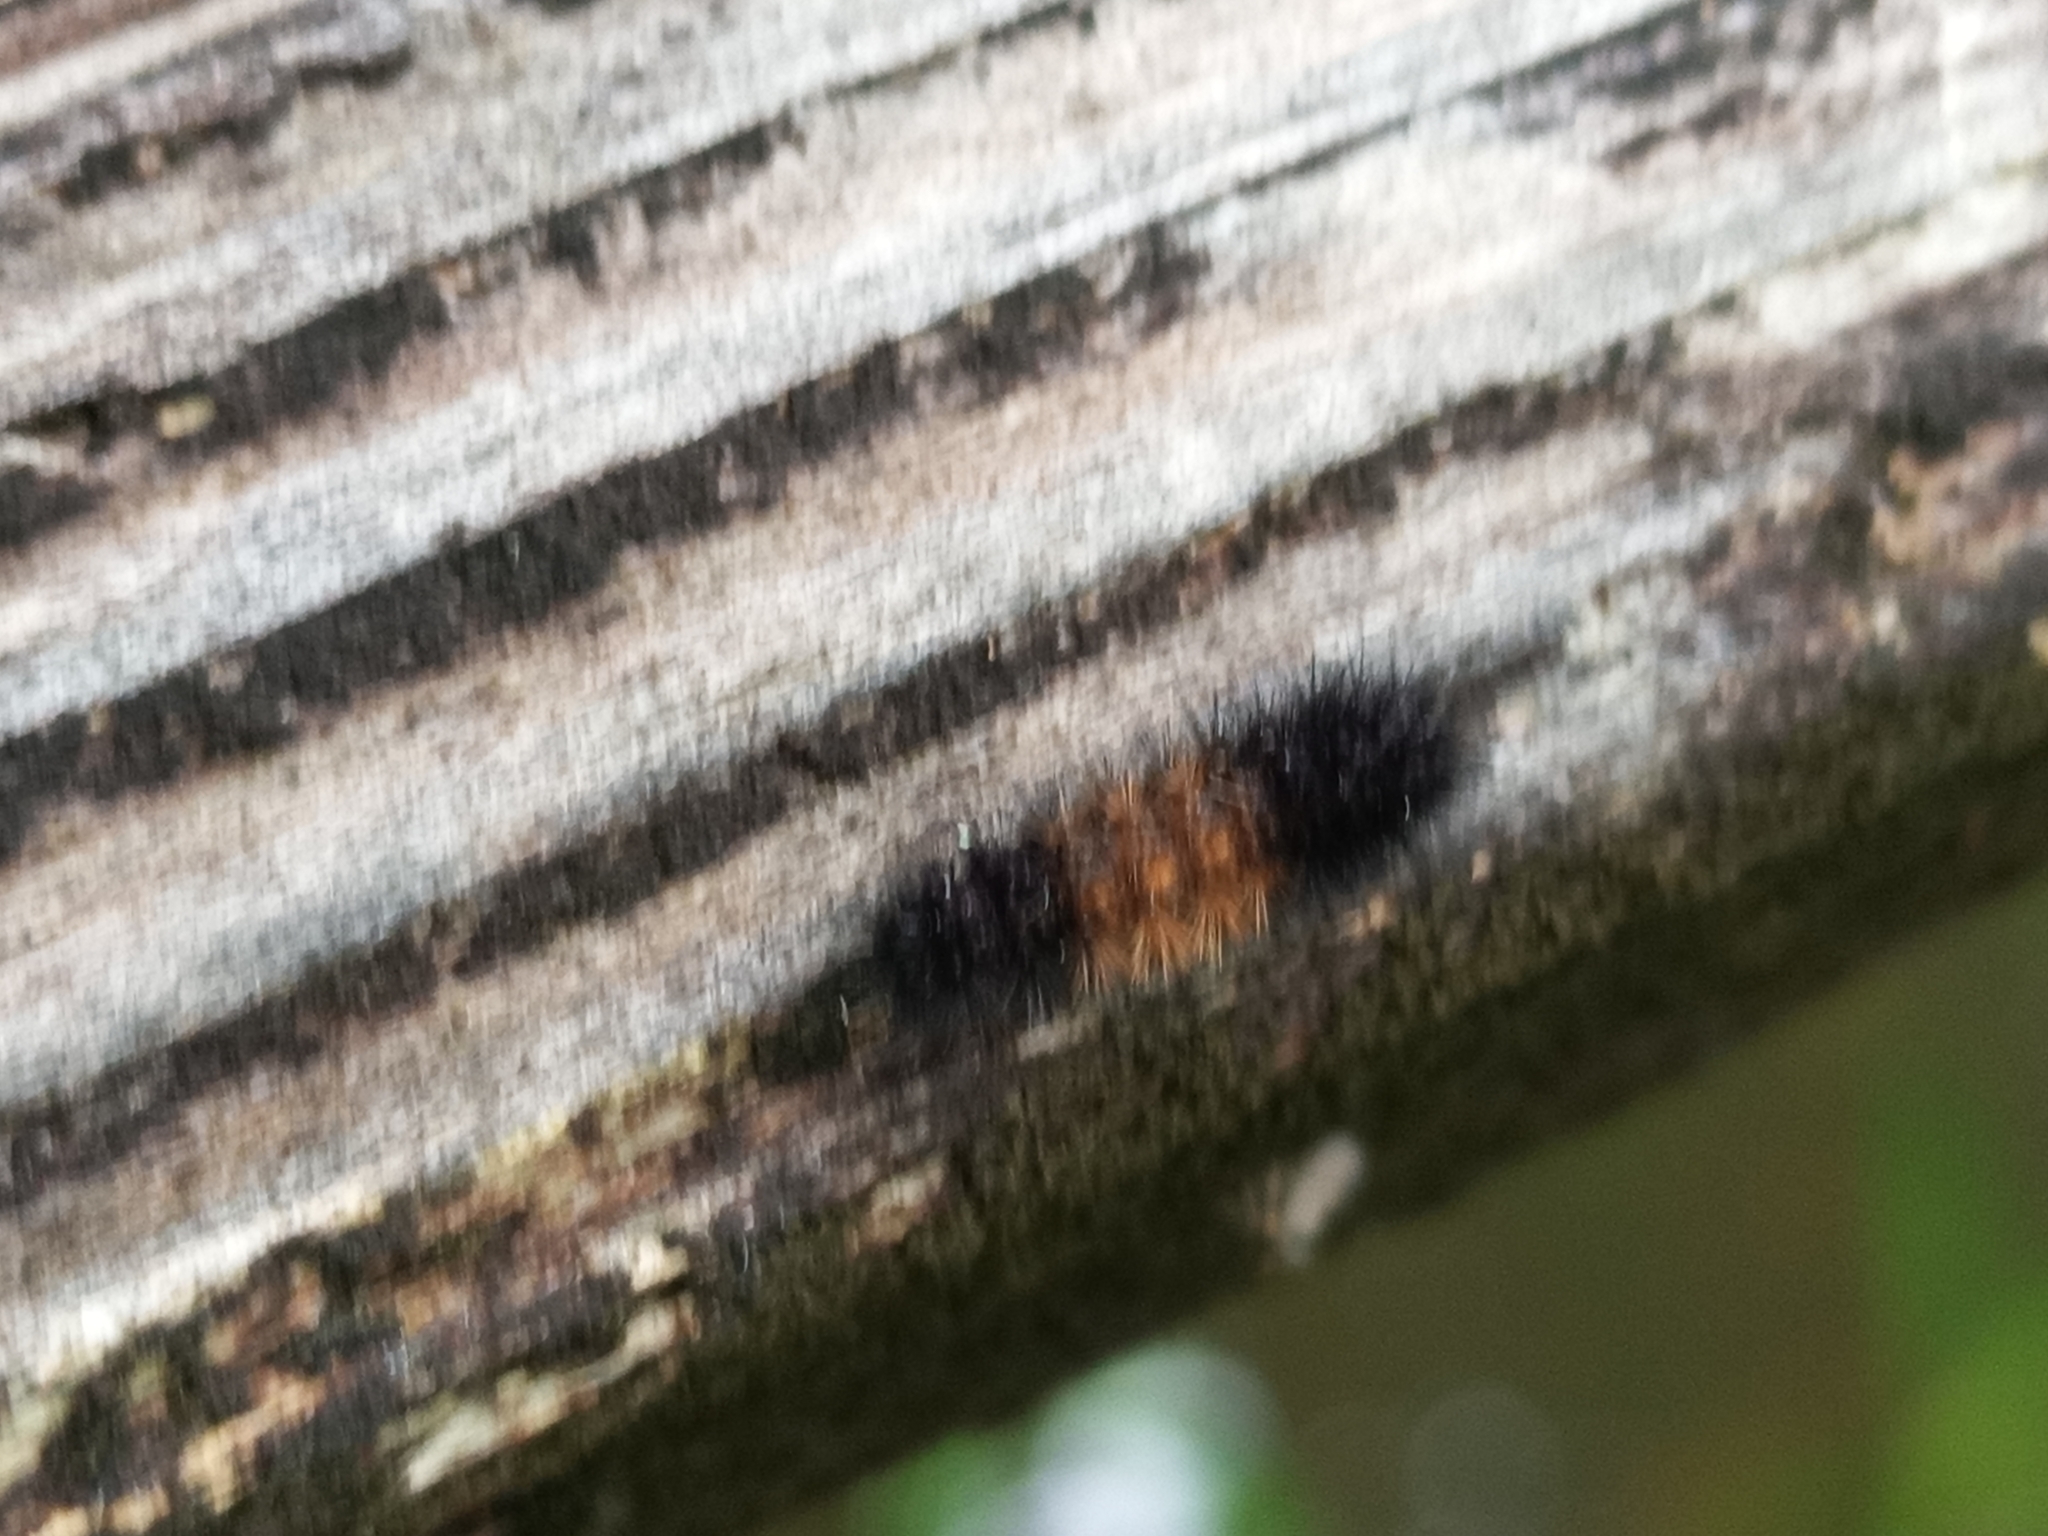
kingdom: Animalia
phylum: Arthropoda
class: Insecta
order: Lepidoptera
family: Erebidae
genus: Pyrrharctia
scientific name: Pyrrharctia isabella
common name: Isabella tiger moth
